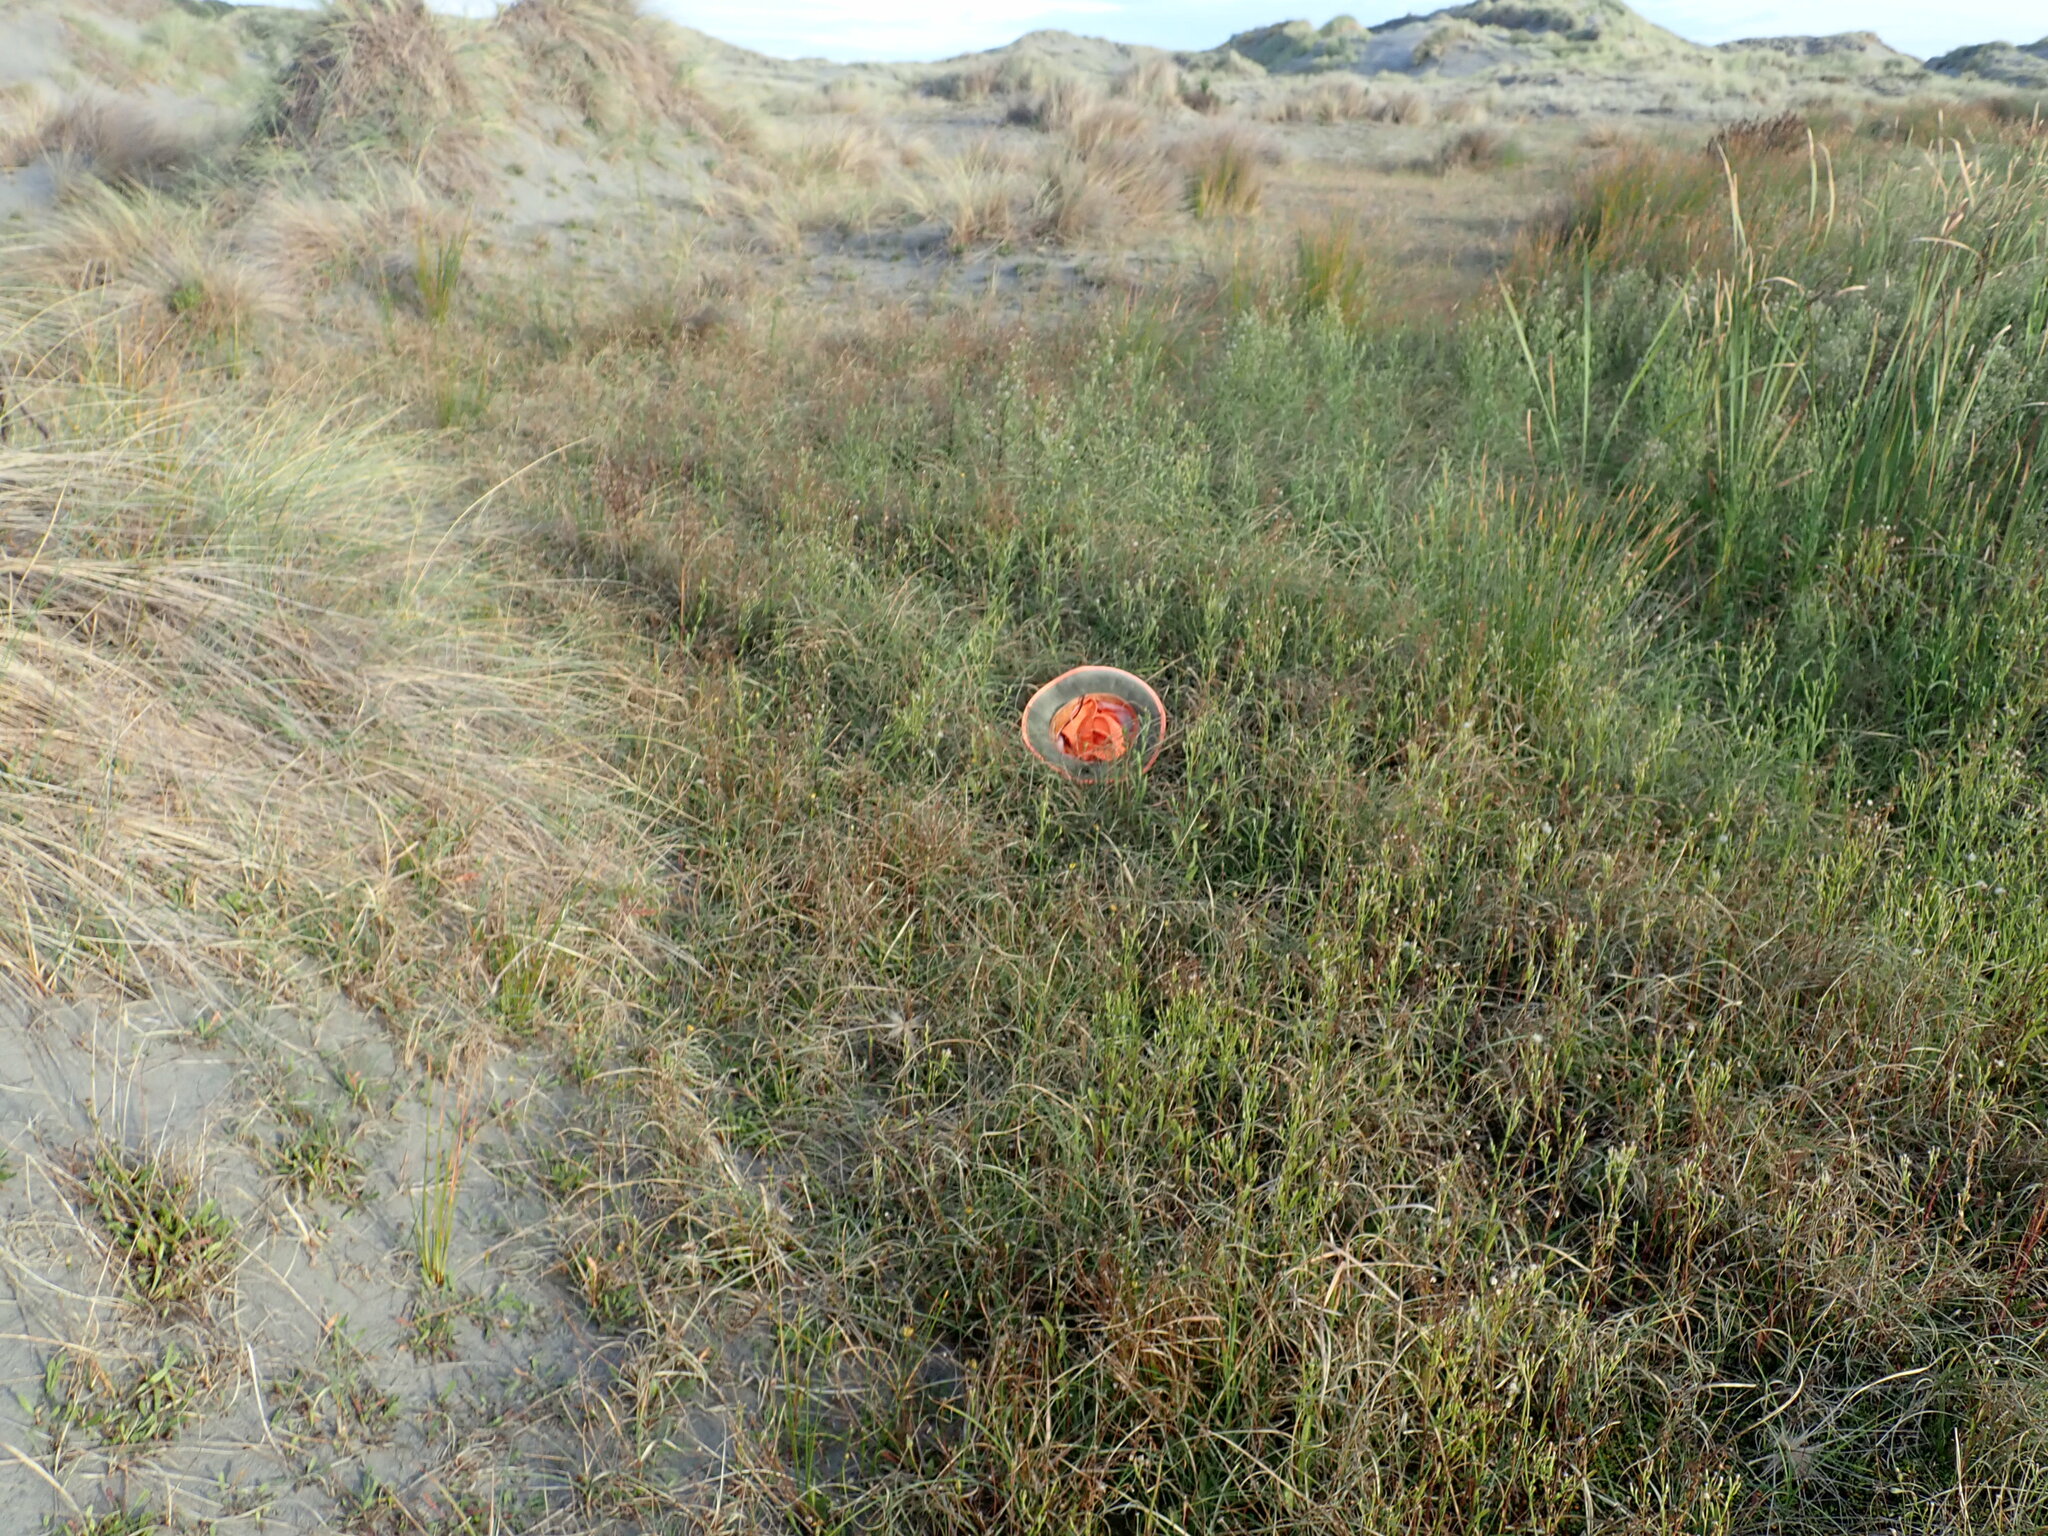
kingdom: Plantae
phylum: Tracheophyta
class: Magnoliopsida
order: Myrtales
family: Onagraceae
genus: Epilobium
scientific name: Epilobium billardiereanum
